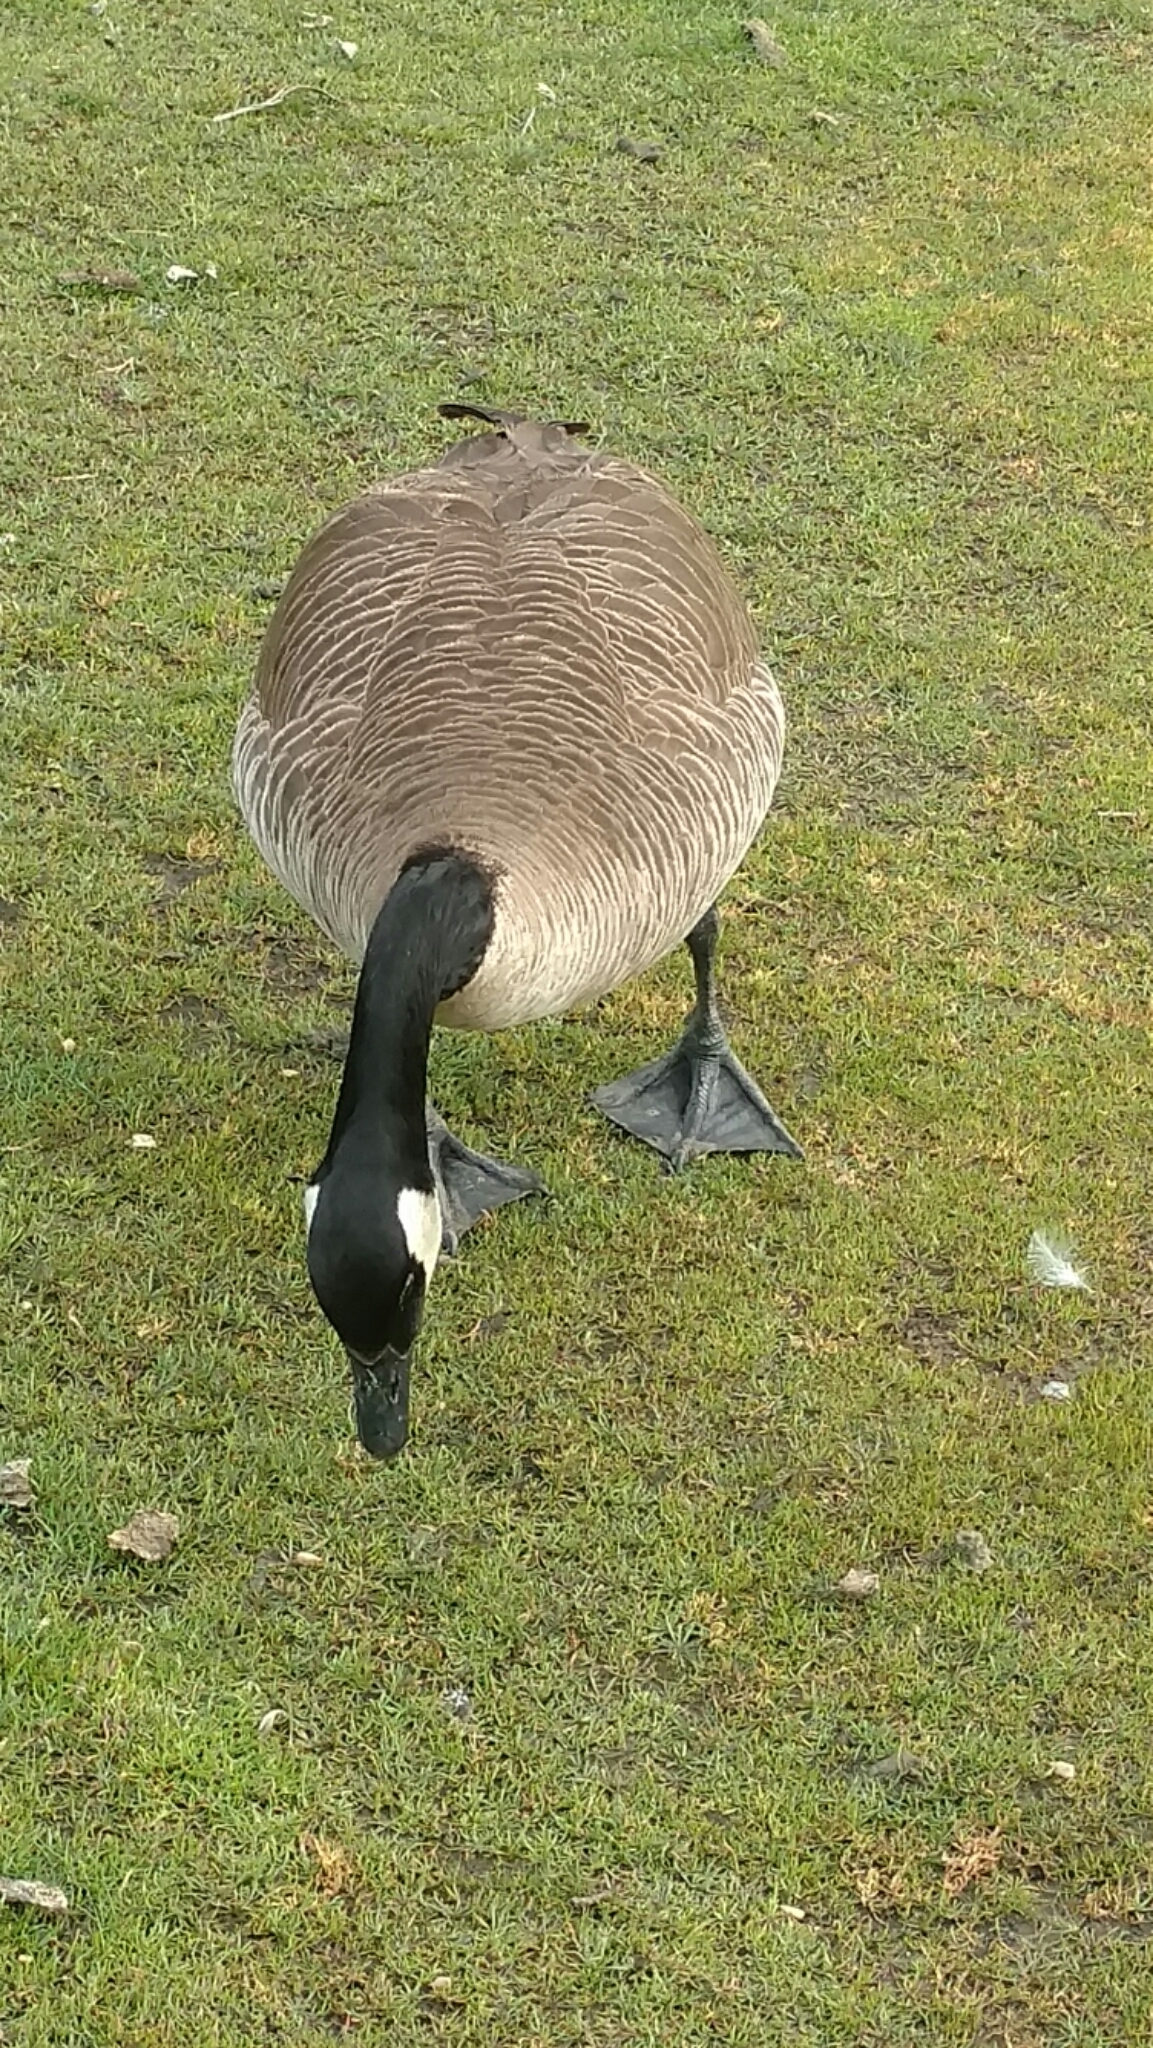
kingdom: Animalia
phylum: Chordata
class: Aves
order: Anseriformes
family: Anatidae
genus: Branta
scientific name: Branta canadensis
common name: Canada goose
